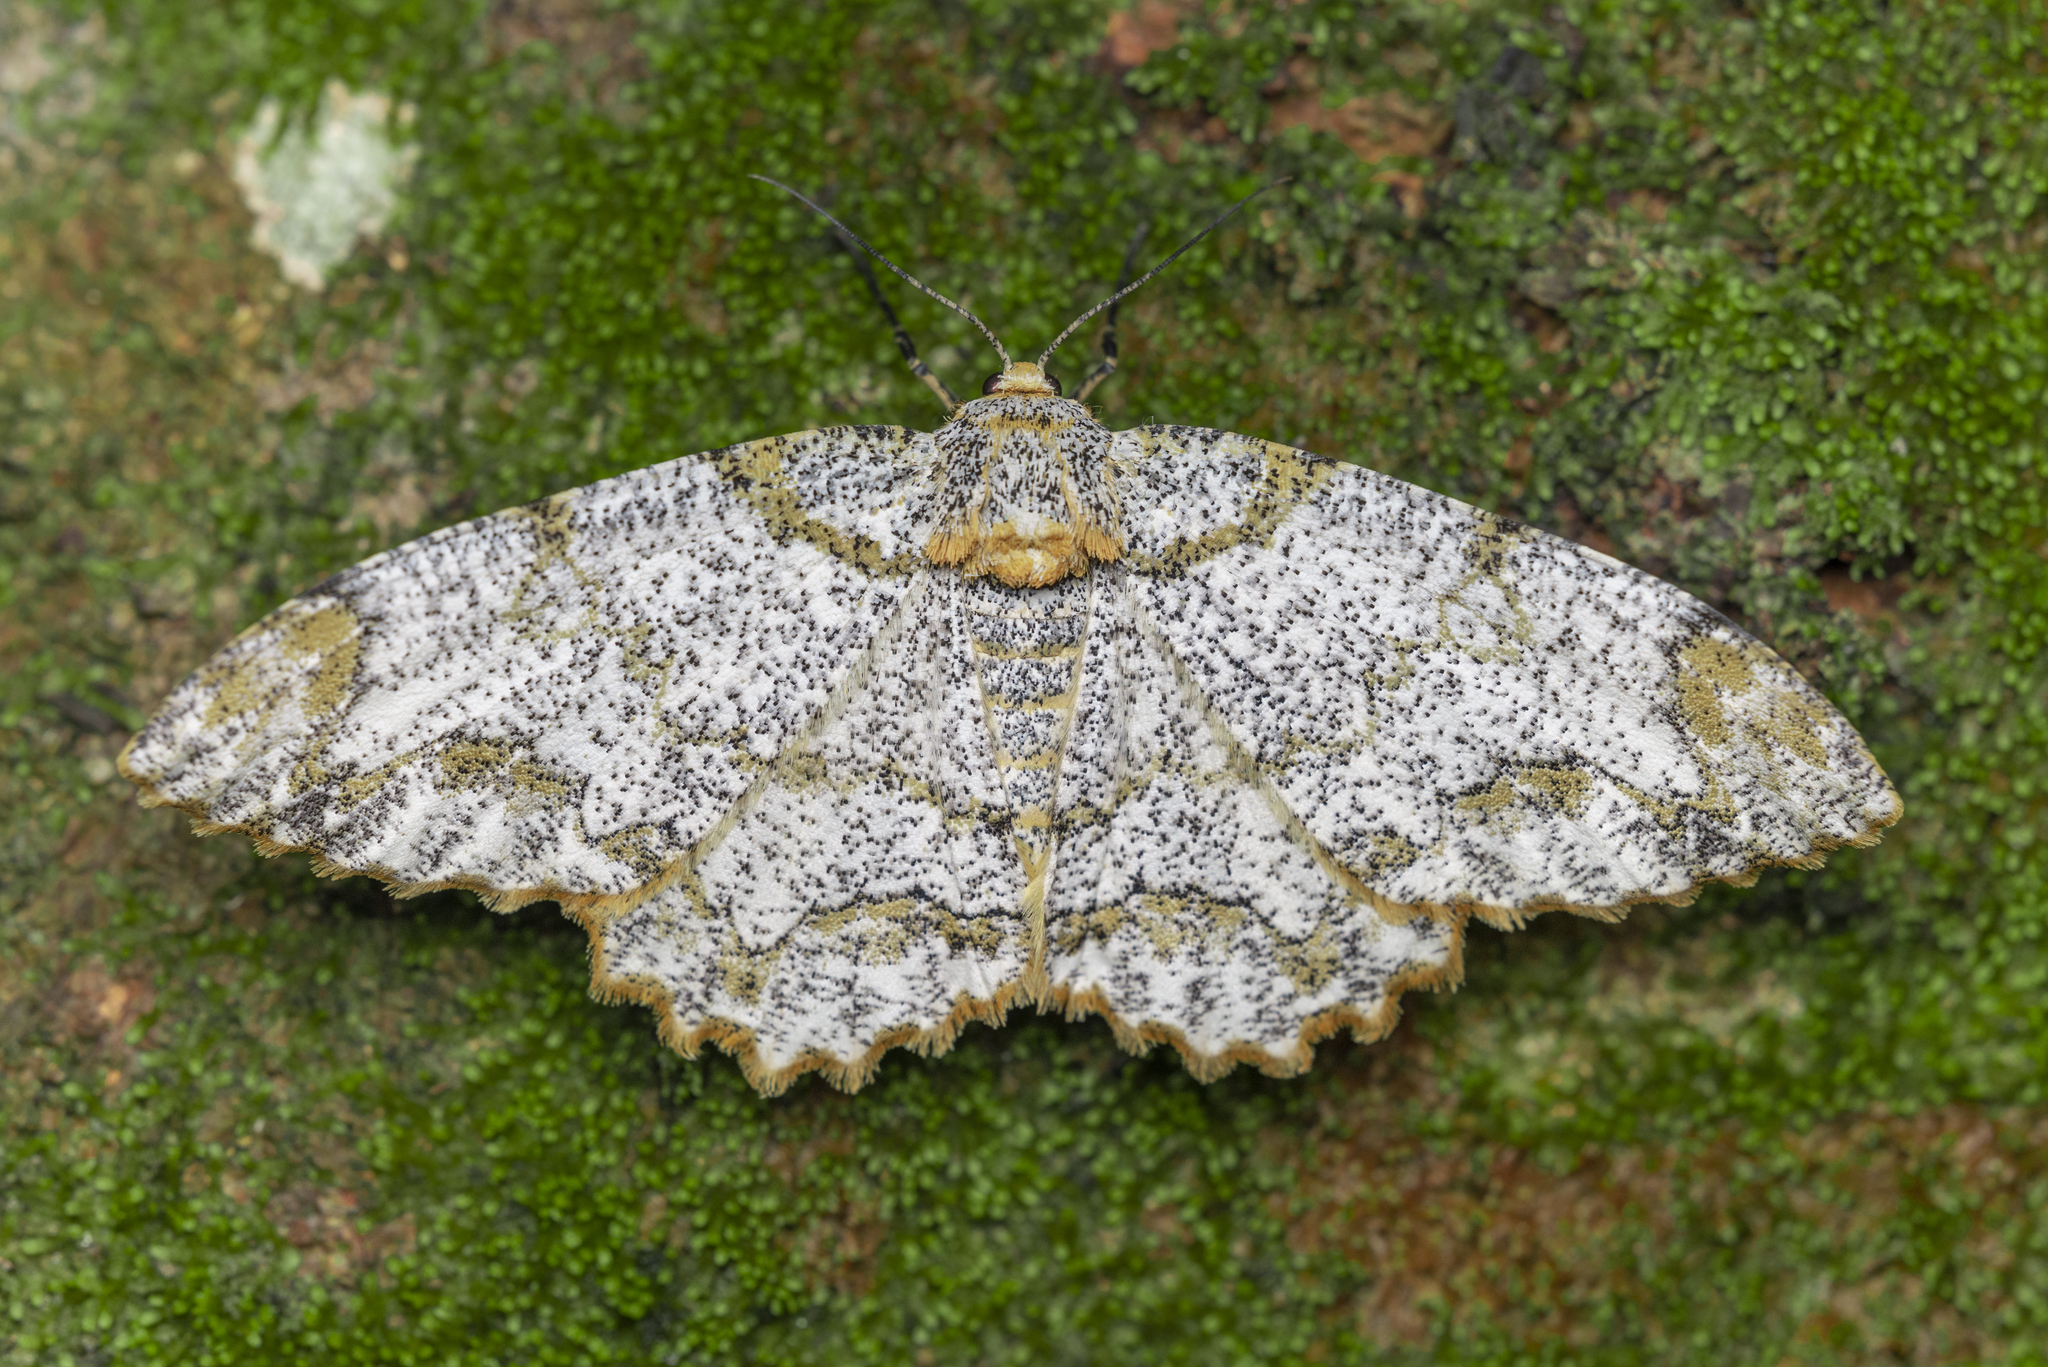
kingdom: Animalia
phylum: Arthropoda
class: Insecta
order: Lepidoptera
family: Geometridae
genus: Biston
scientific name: Biston suppressaria
